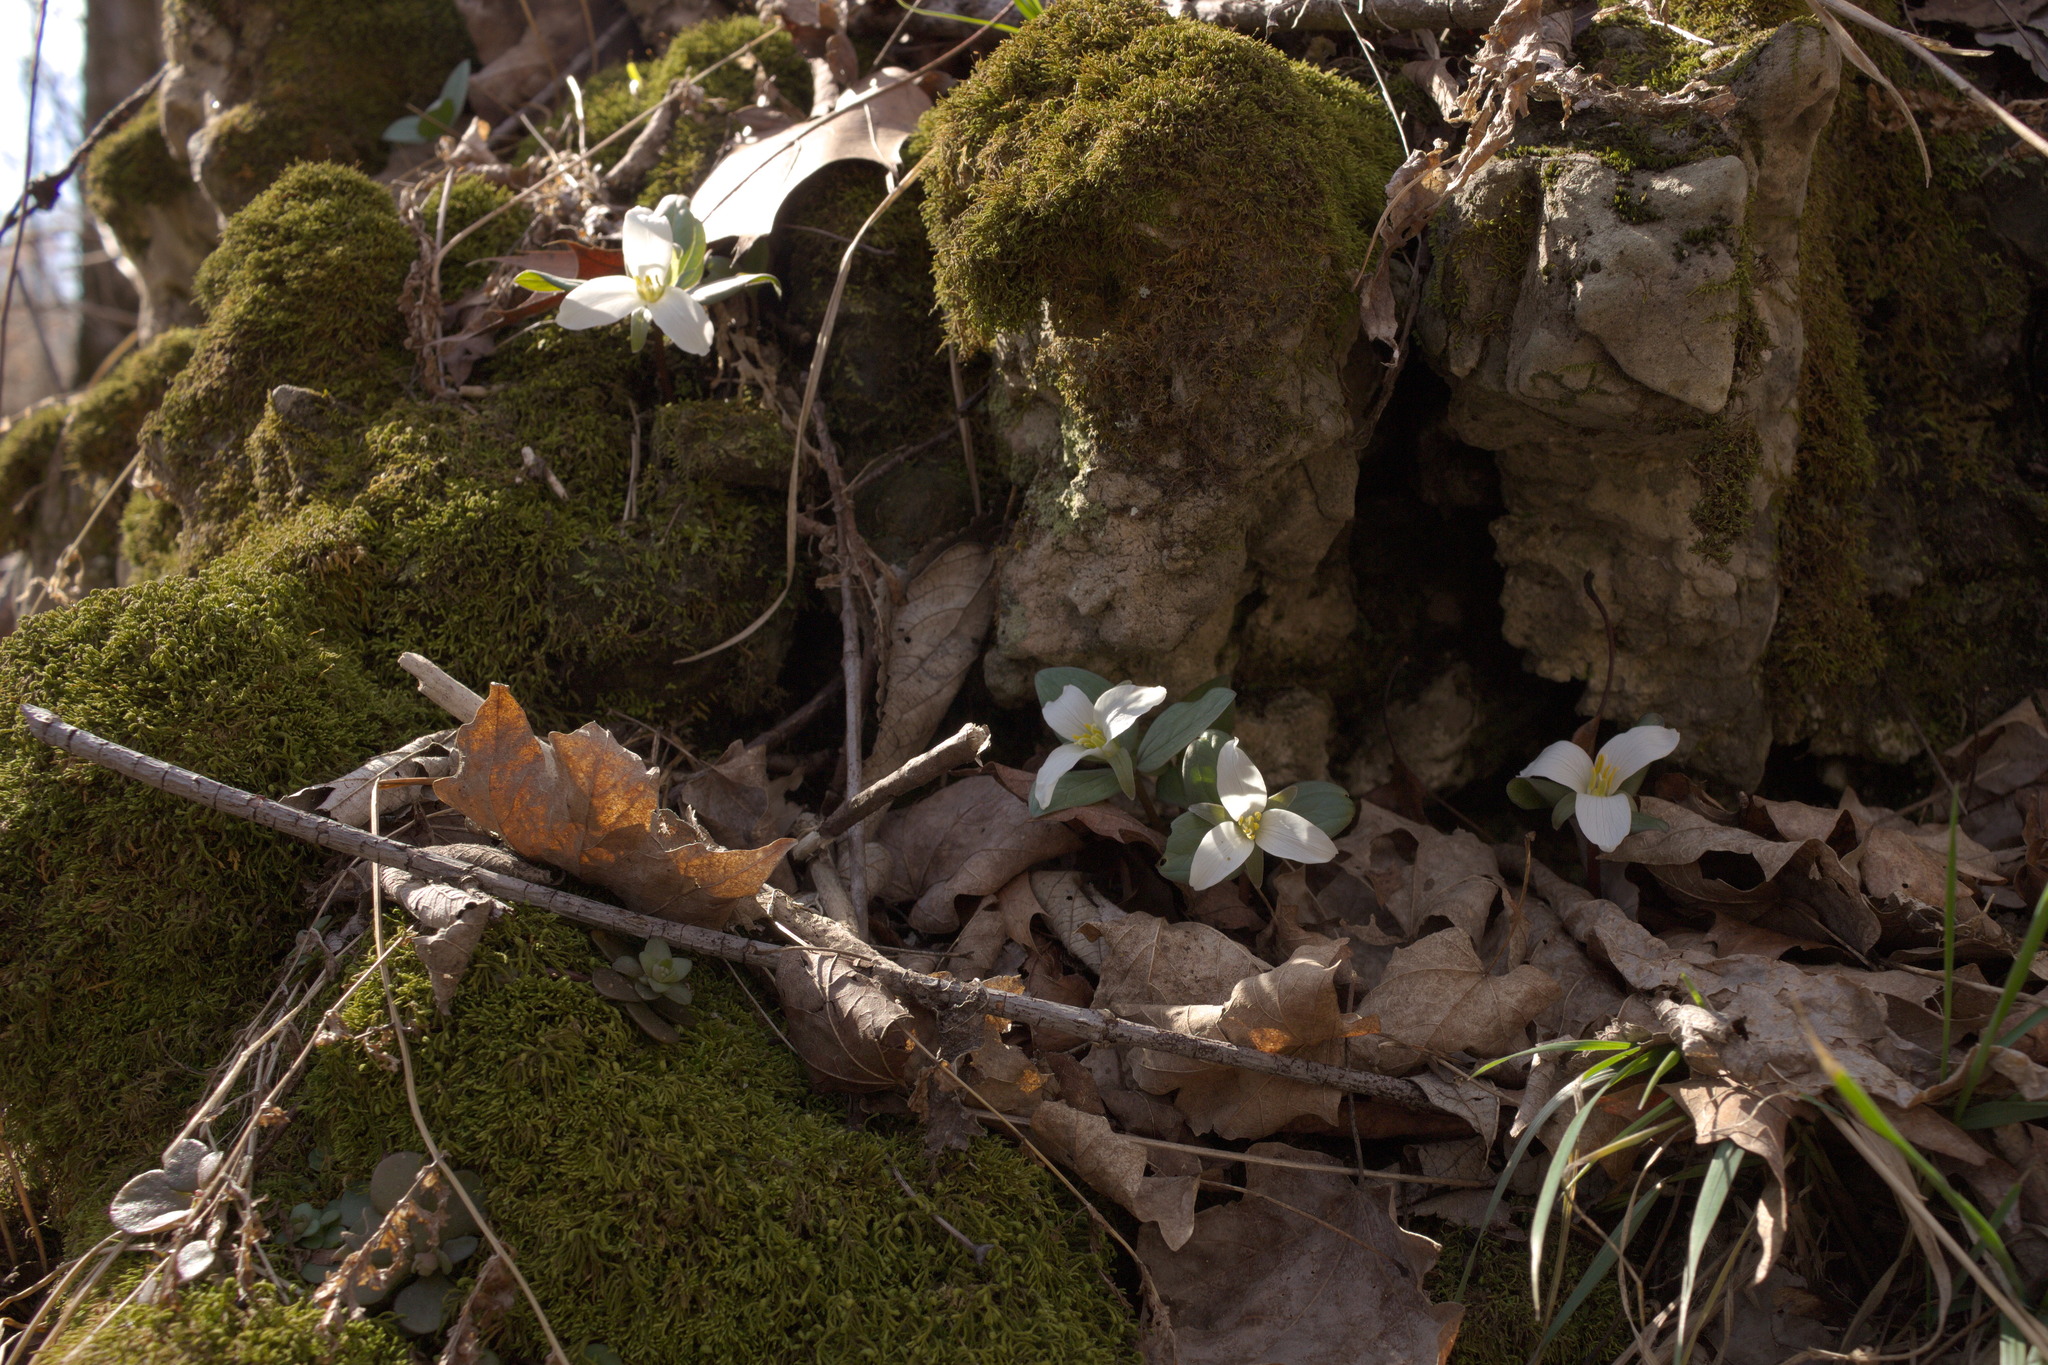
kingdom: Plantae
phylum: Tracheophyta
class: Liliopsida
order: Liliales
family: Melanthiaceae
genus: Trillium
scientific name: Trillium nivale
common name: Dwarf white trillium
